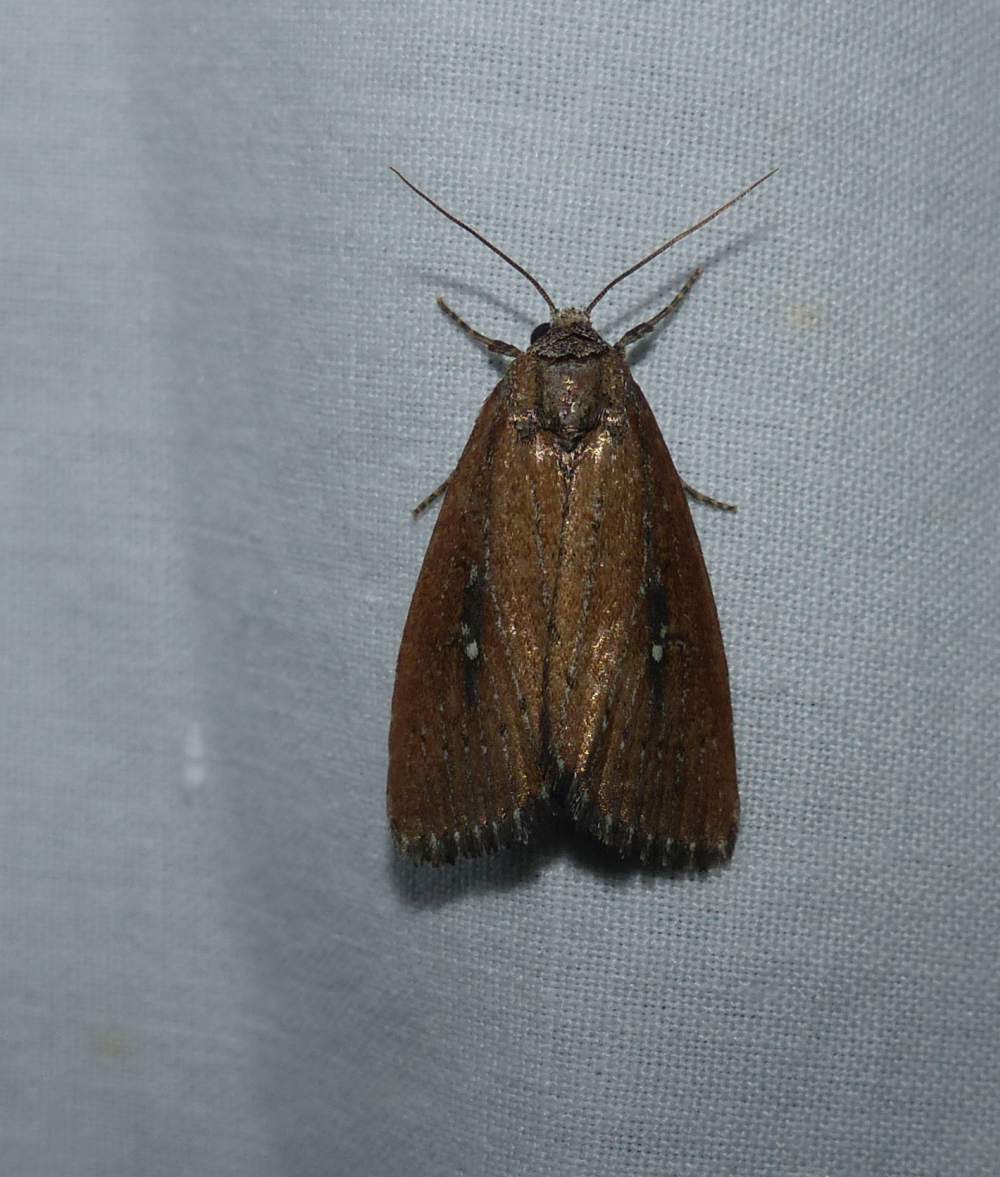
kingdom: Animalia
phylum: Arthropoda
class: Insecta
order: Lepidoptera
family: Noctuidae
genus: Condica
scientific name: Condica videns
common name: White-dotted groundling
